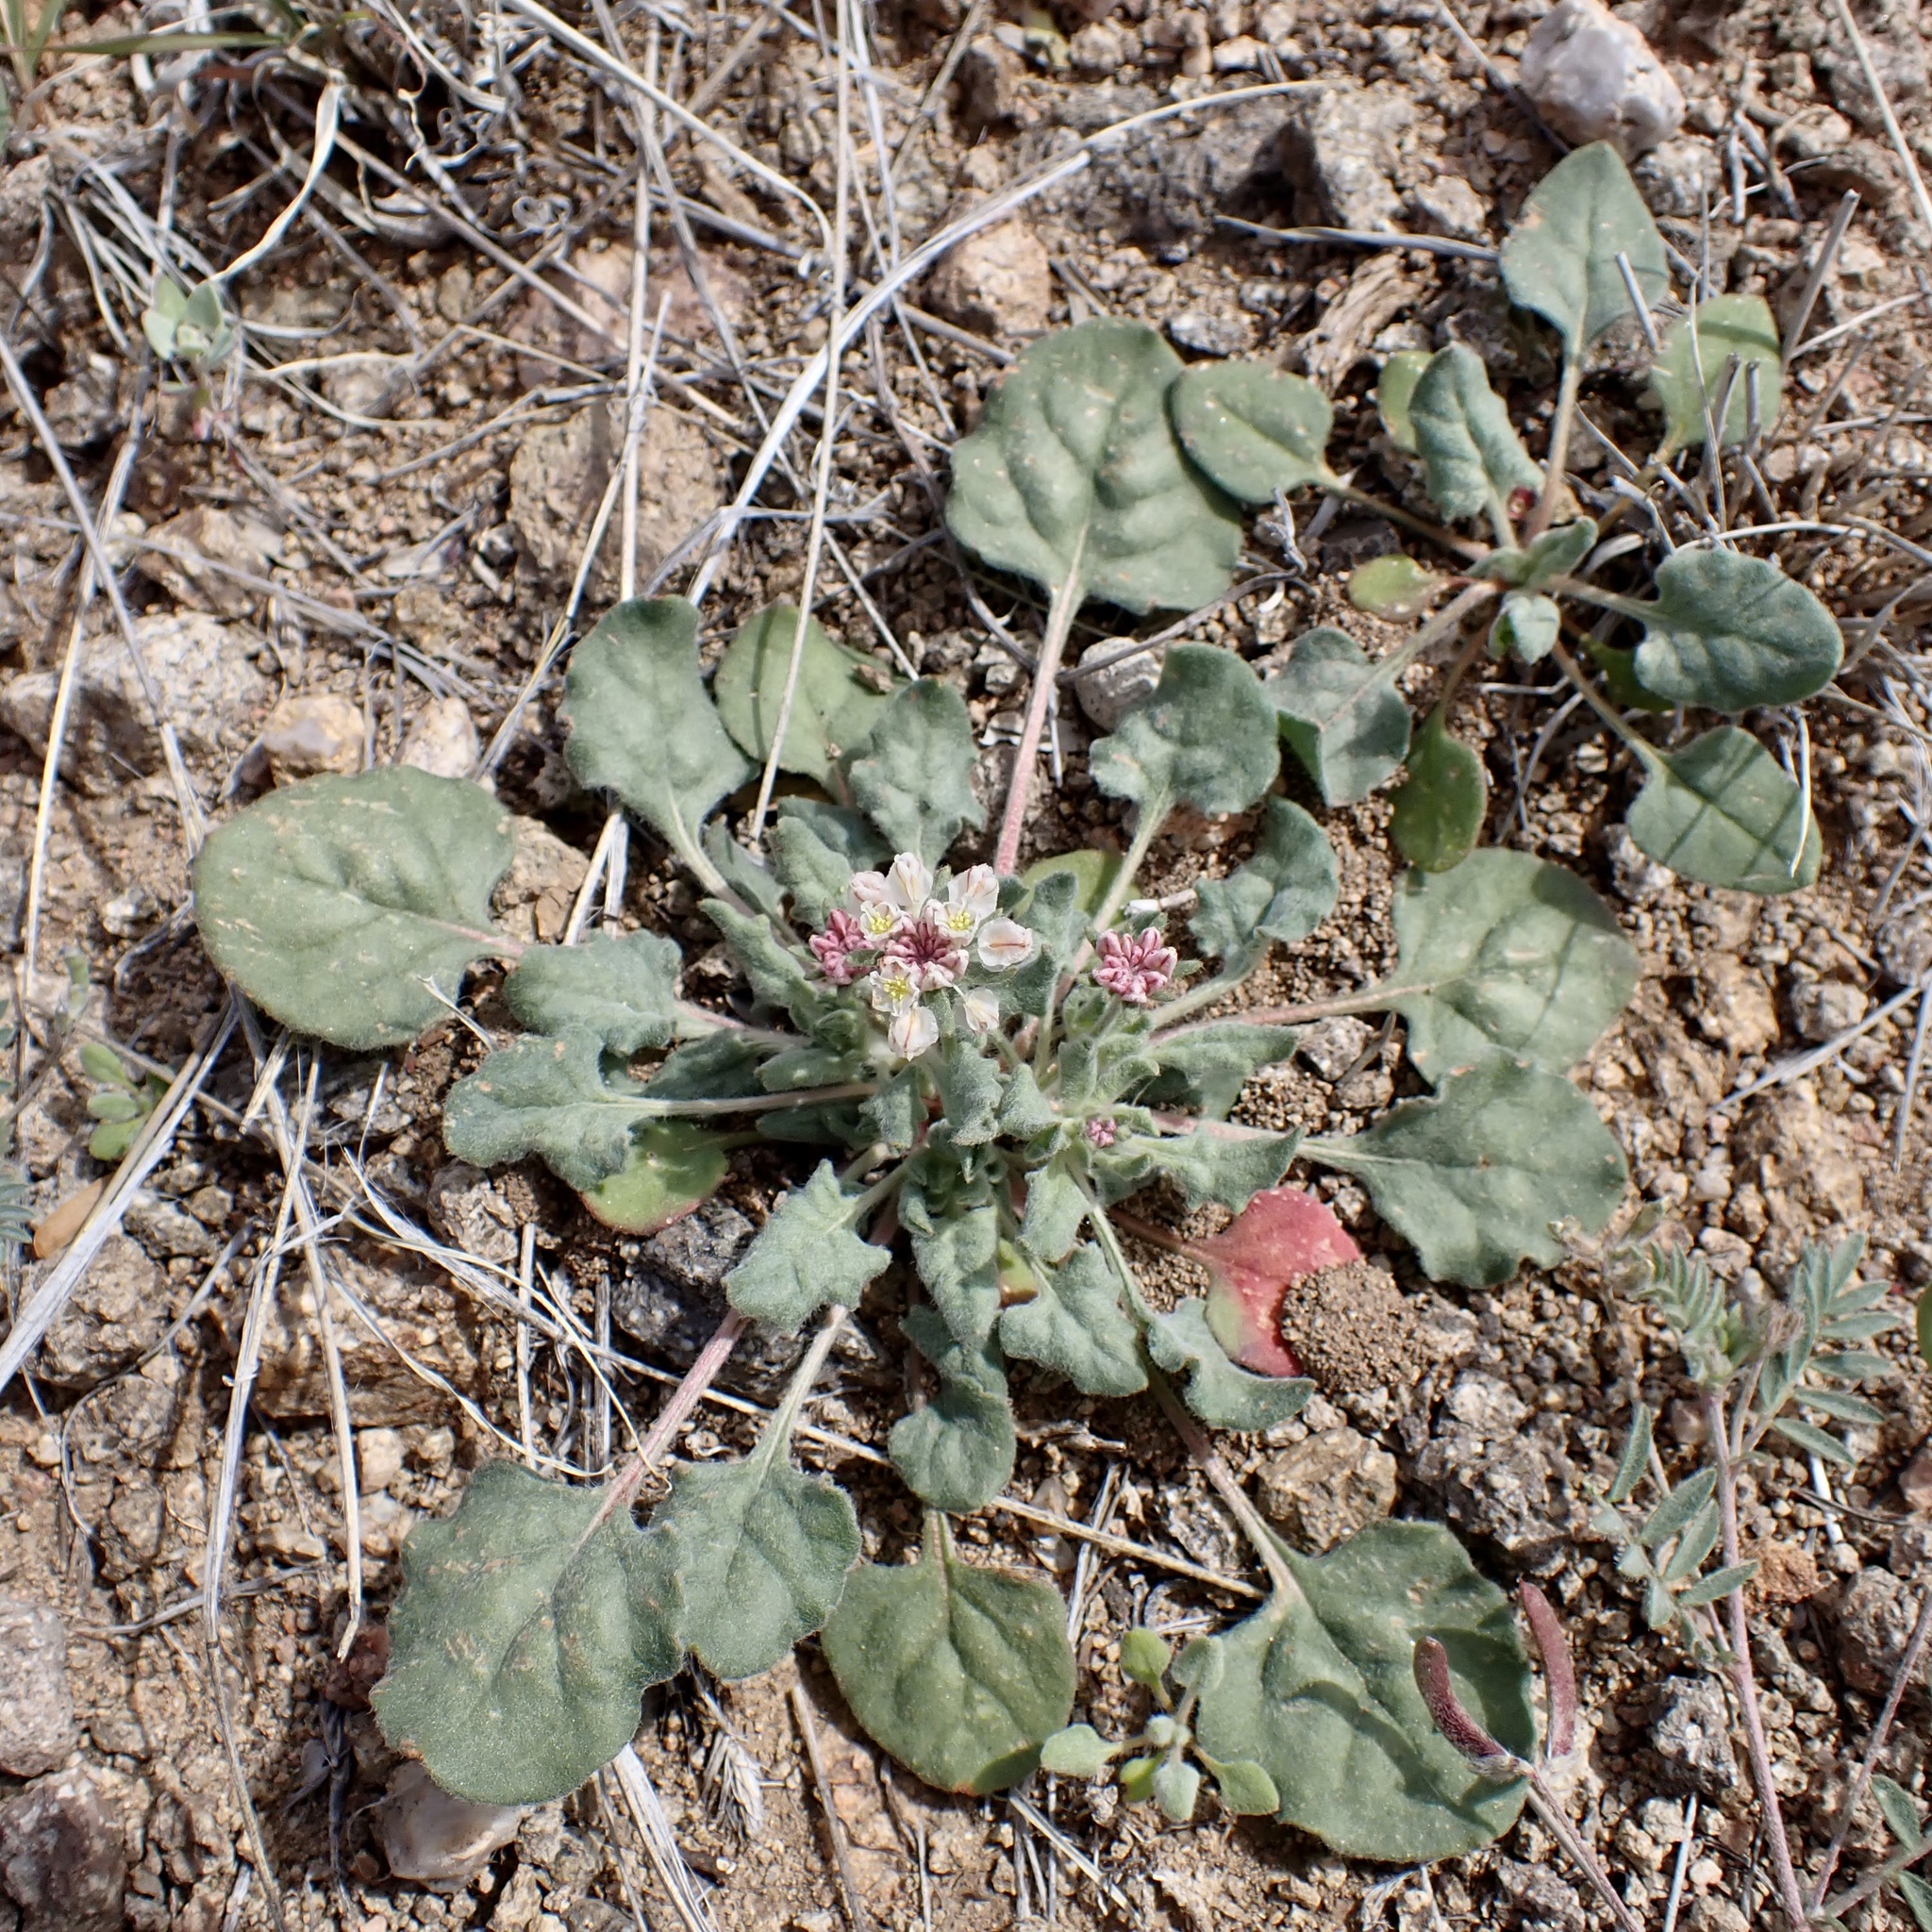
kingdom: Plantae
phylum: Tracheophyta
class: Magnoliopsida
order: Caryophyllales
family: Polygonaceae
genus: Eriogonum
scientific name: Eriogonum abertianum
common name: Abert's wild buckwheat
